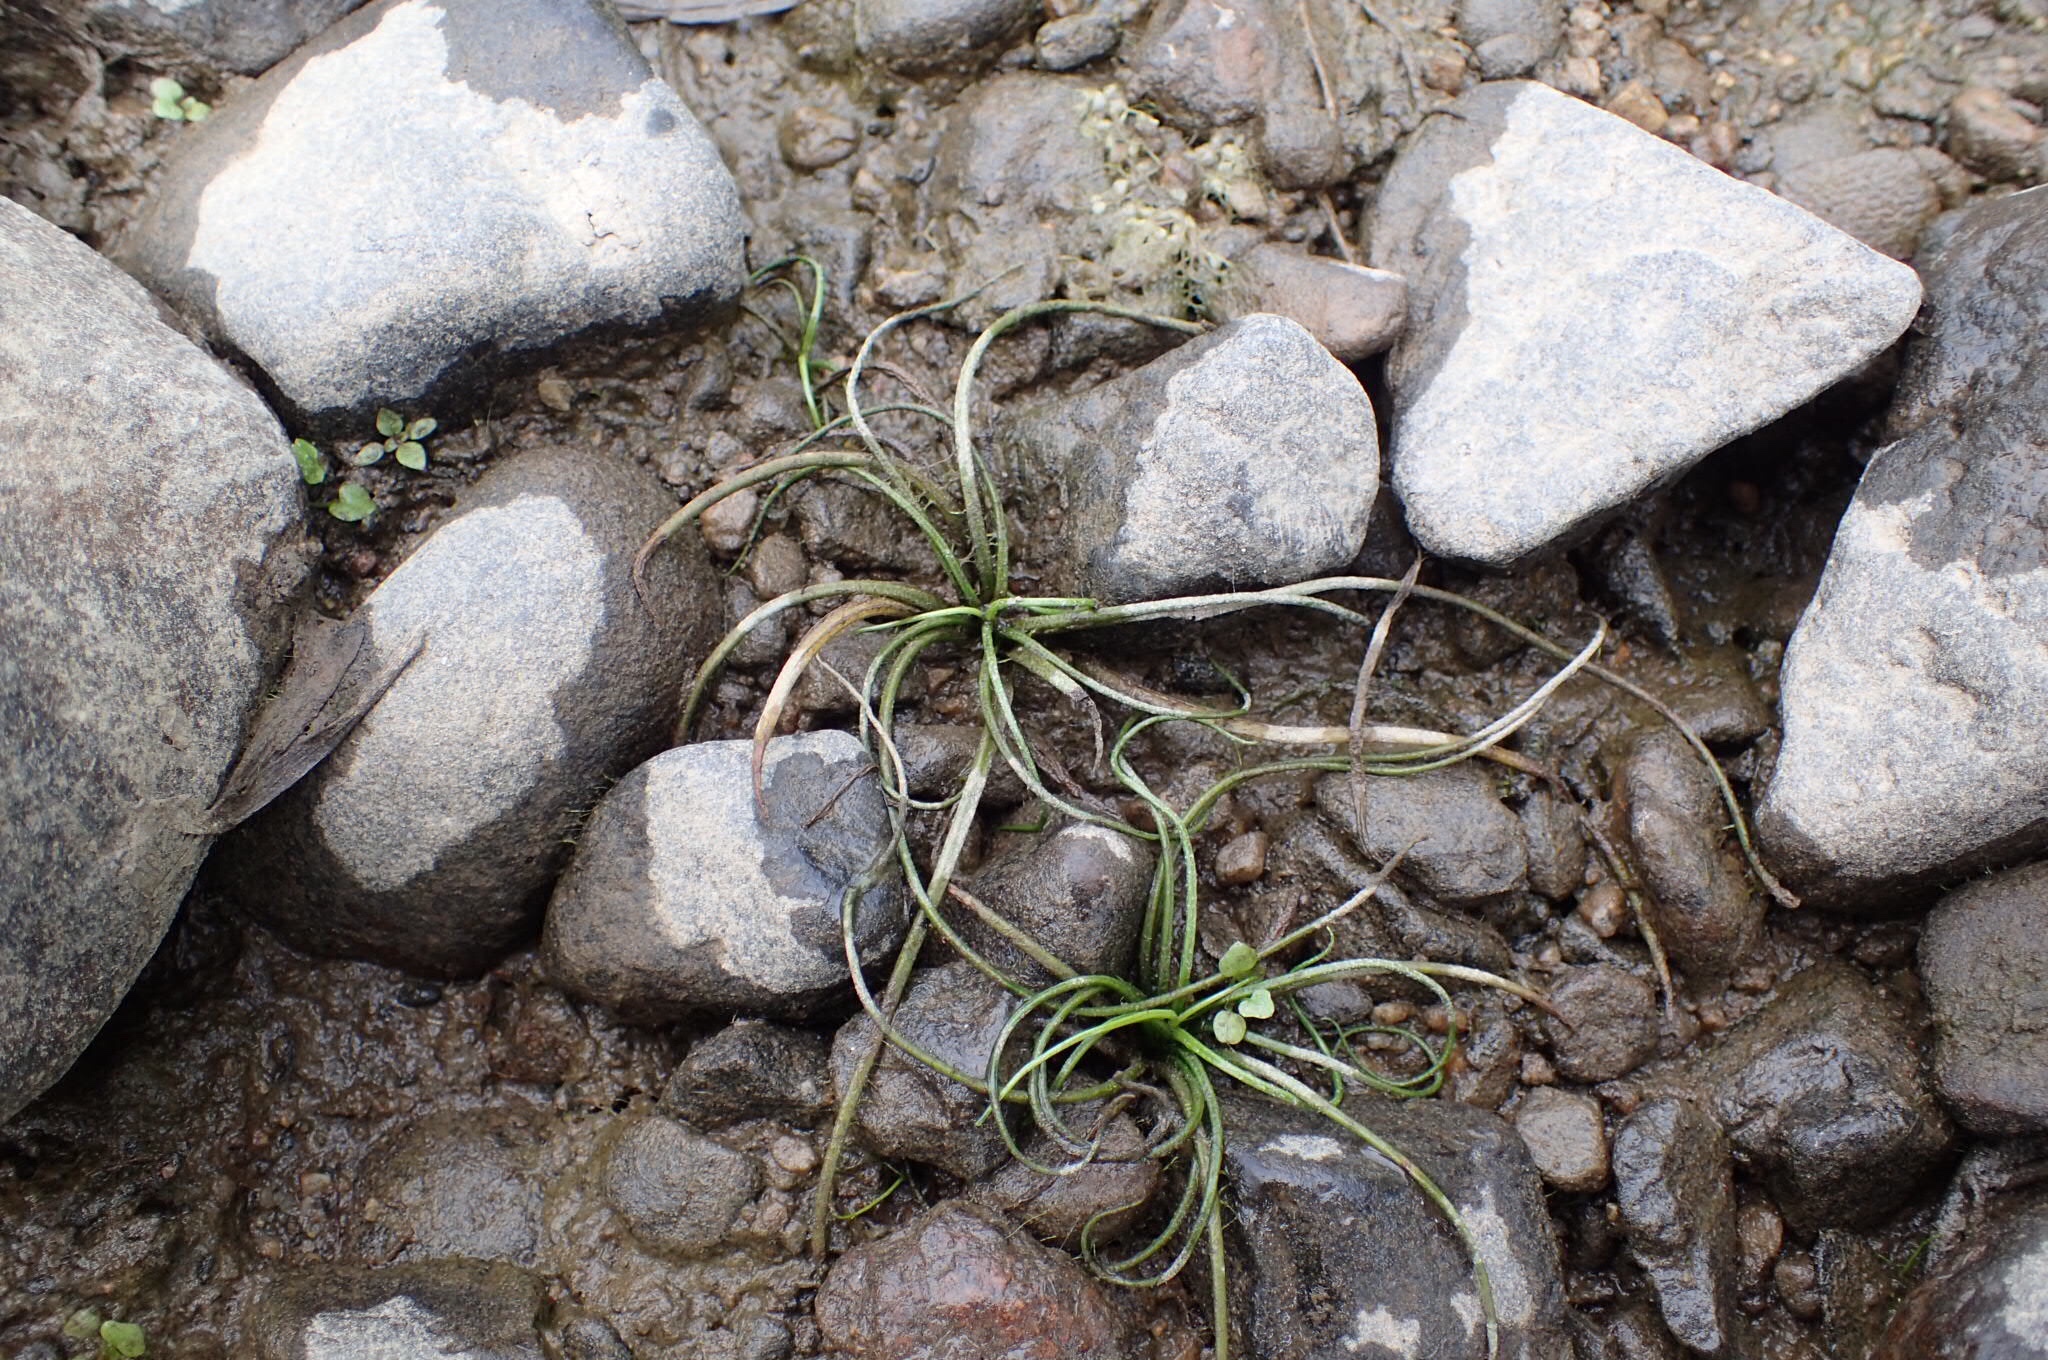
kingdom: Plantae
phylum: Tracheophyta
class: Lycopodiopsida
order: Isoetales
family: Isoetaceae
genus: Isoetes
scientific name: Isoetes echinospora
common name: Spring quillwort
